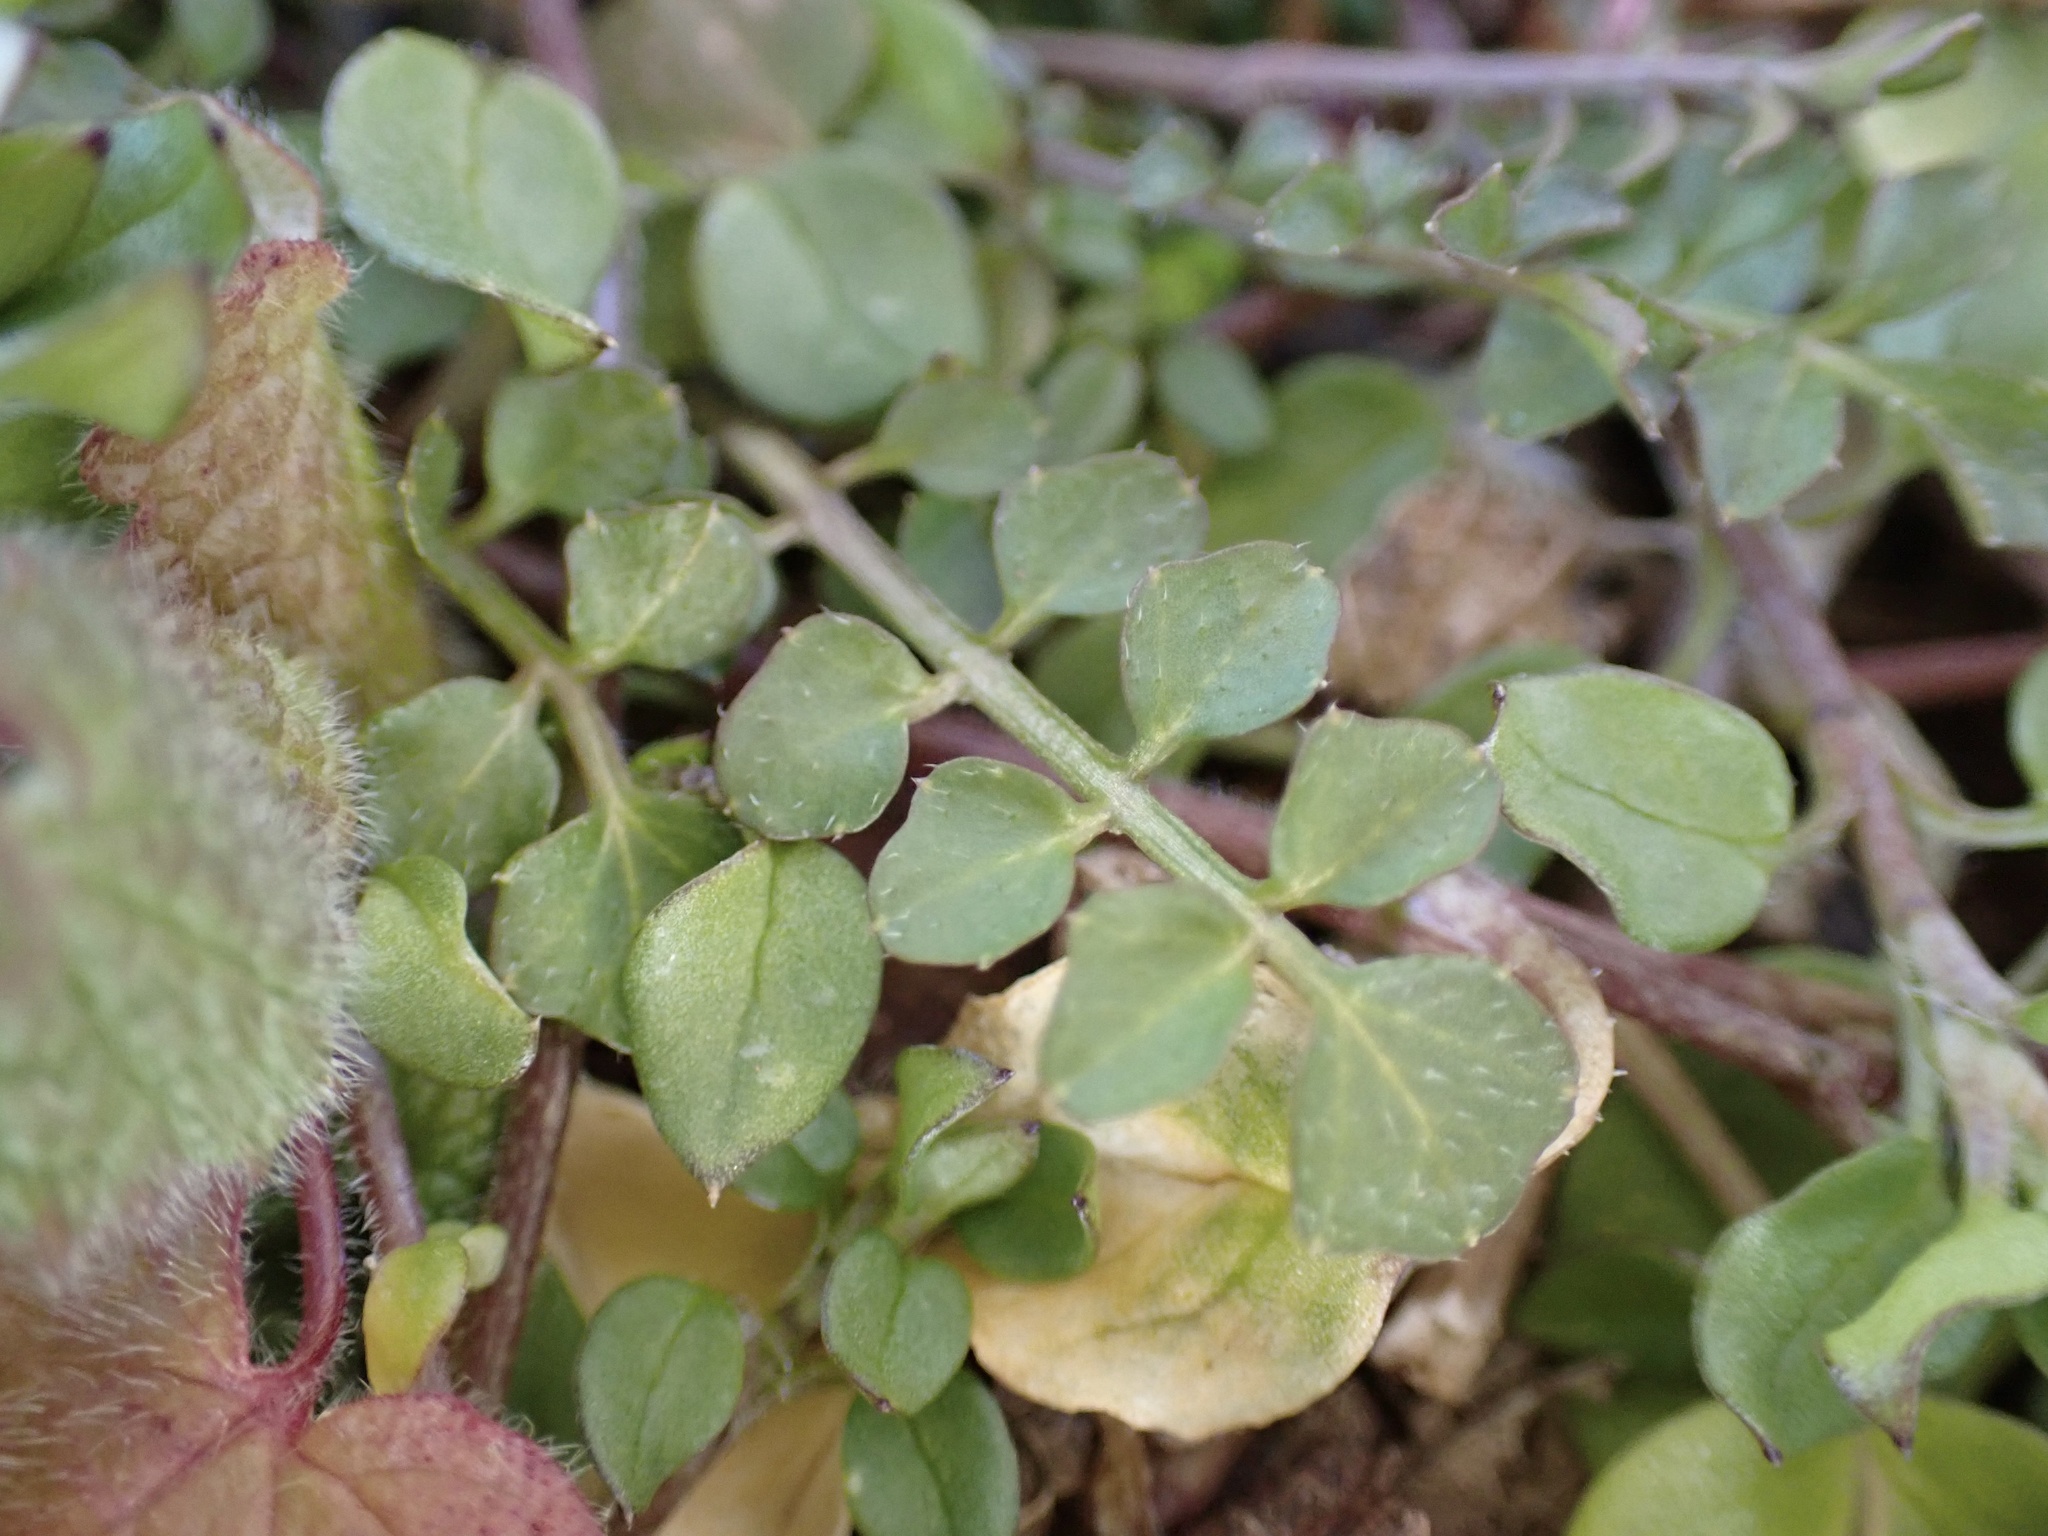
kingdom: Plantae
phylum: Tracheophyta
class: Magnoliopsida
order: Brassicales
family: Brassicaceae
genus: Cardamine
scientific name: Cardamine hirsuta
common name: Hairy bittercress
